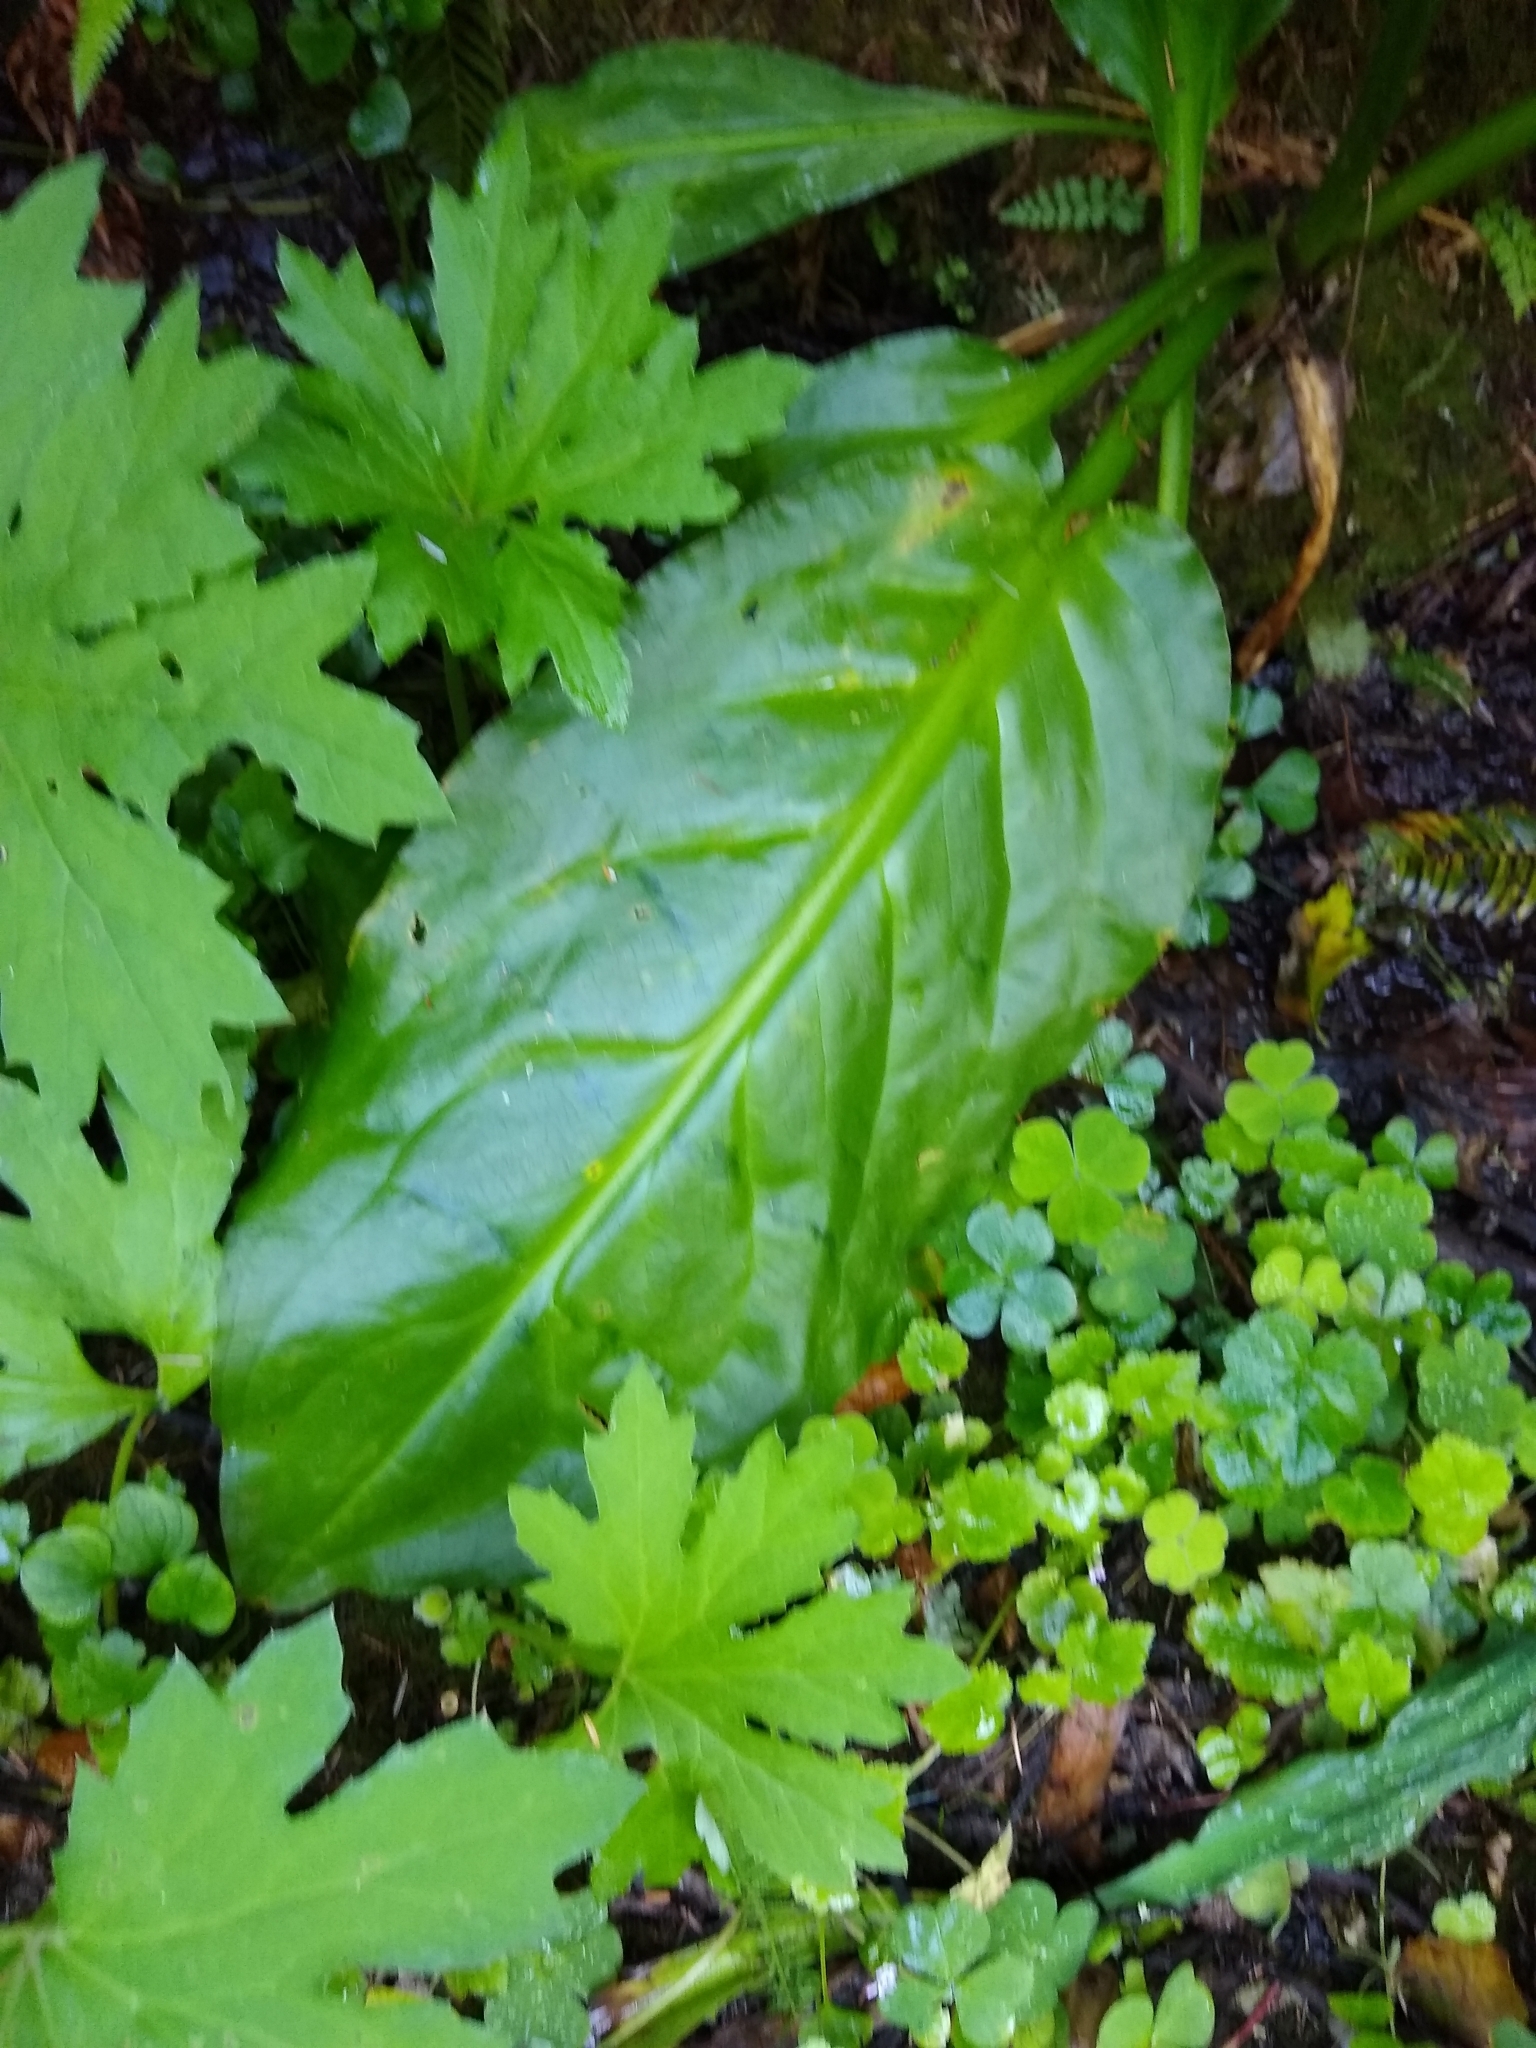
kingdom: Plantae
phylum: Tracheophyta
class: Liliopsida
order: Alismatales
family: Araceae
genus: Lysichiton
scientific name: Lysichiton americanus
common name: American skunk cabbage
